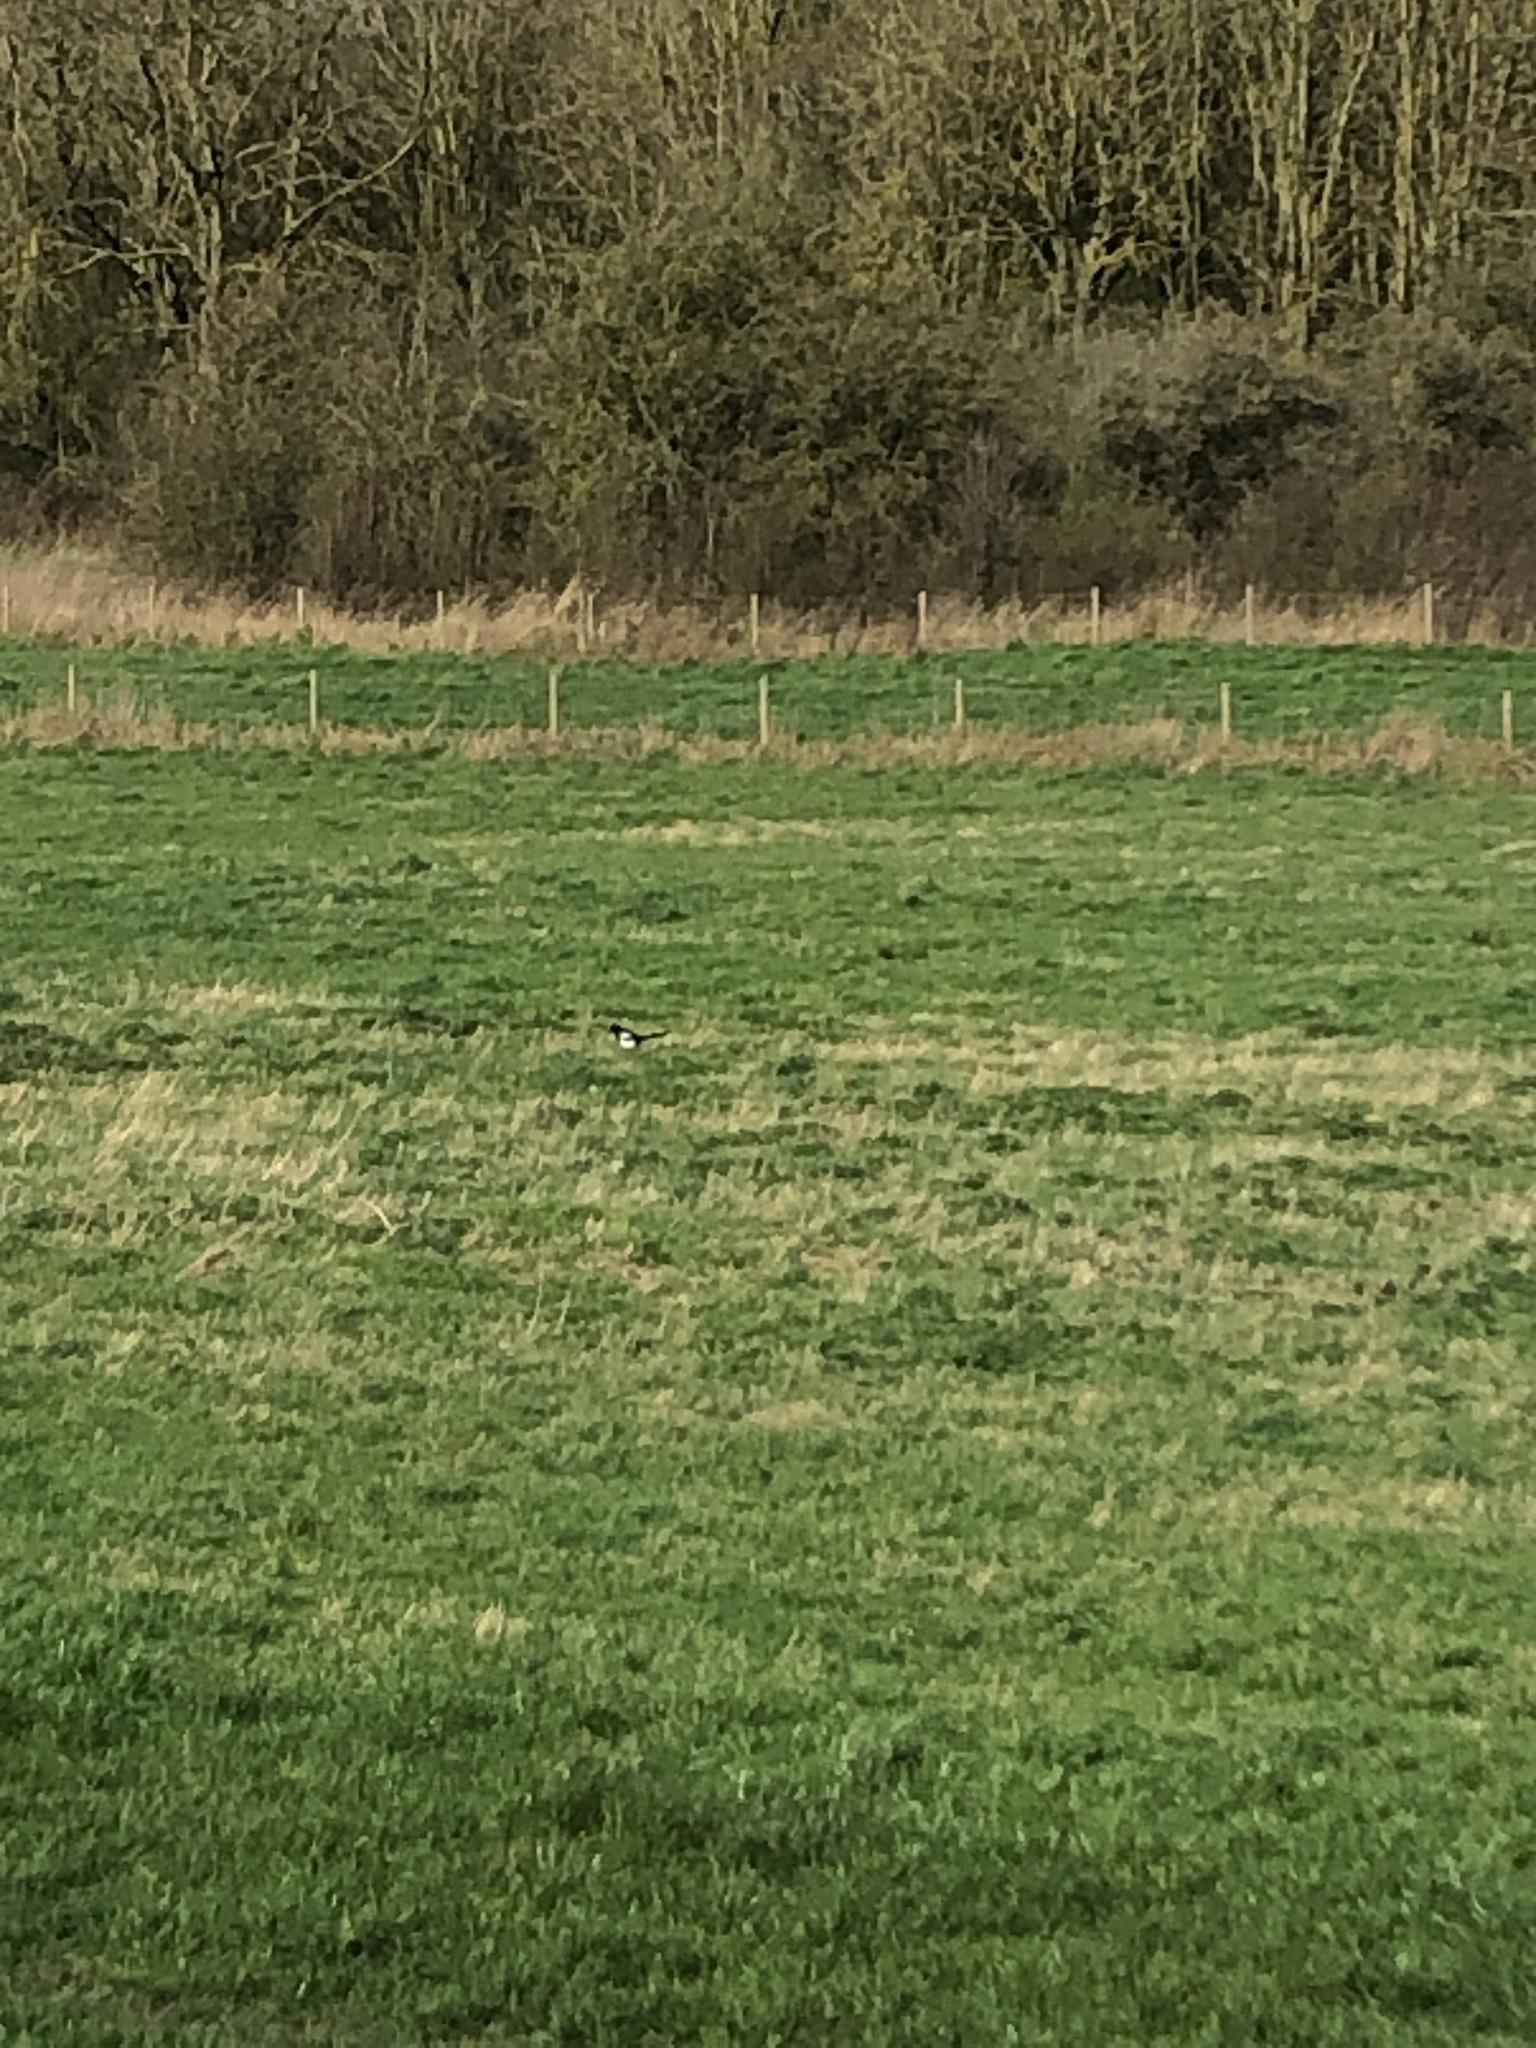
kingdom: Animalia
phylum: Chordata
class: Aves
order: Passeriformes
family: Corvidae
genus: Pica
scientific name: Pica pica
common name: Eurasian magpie
